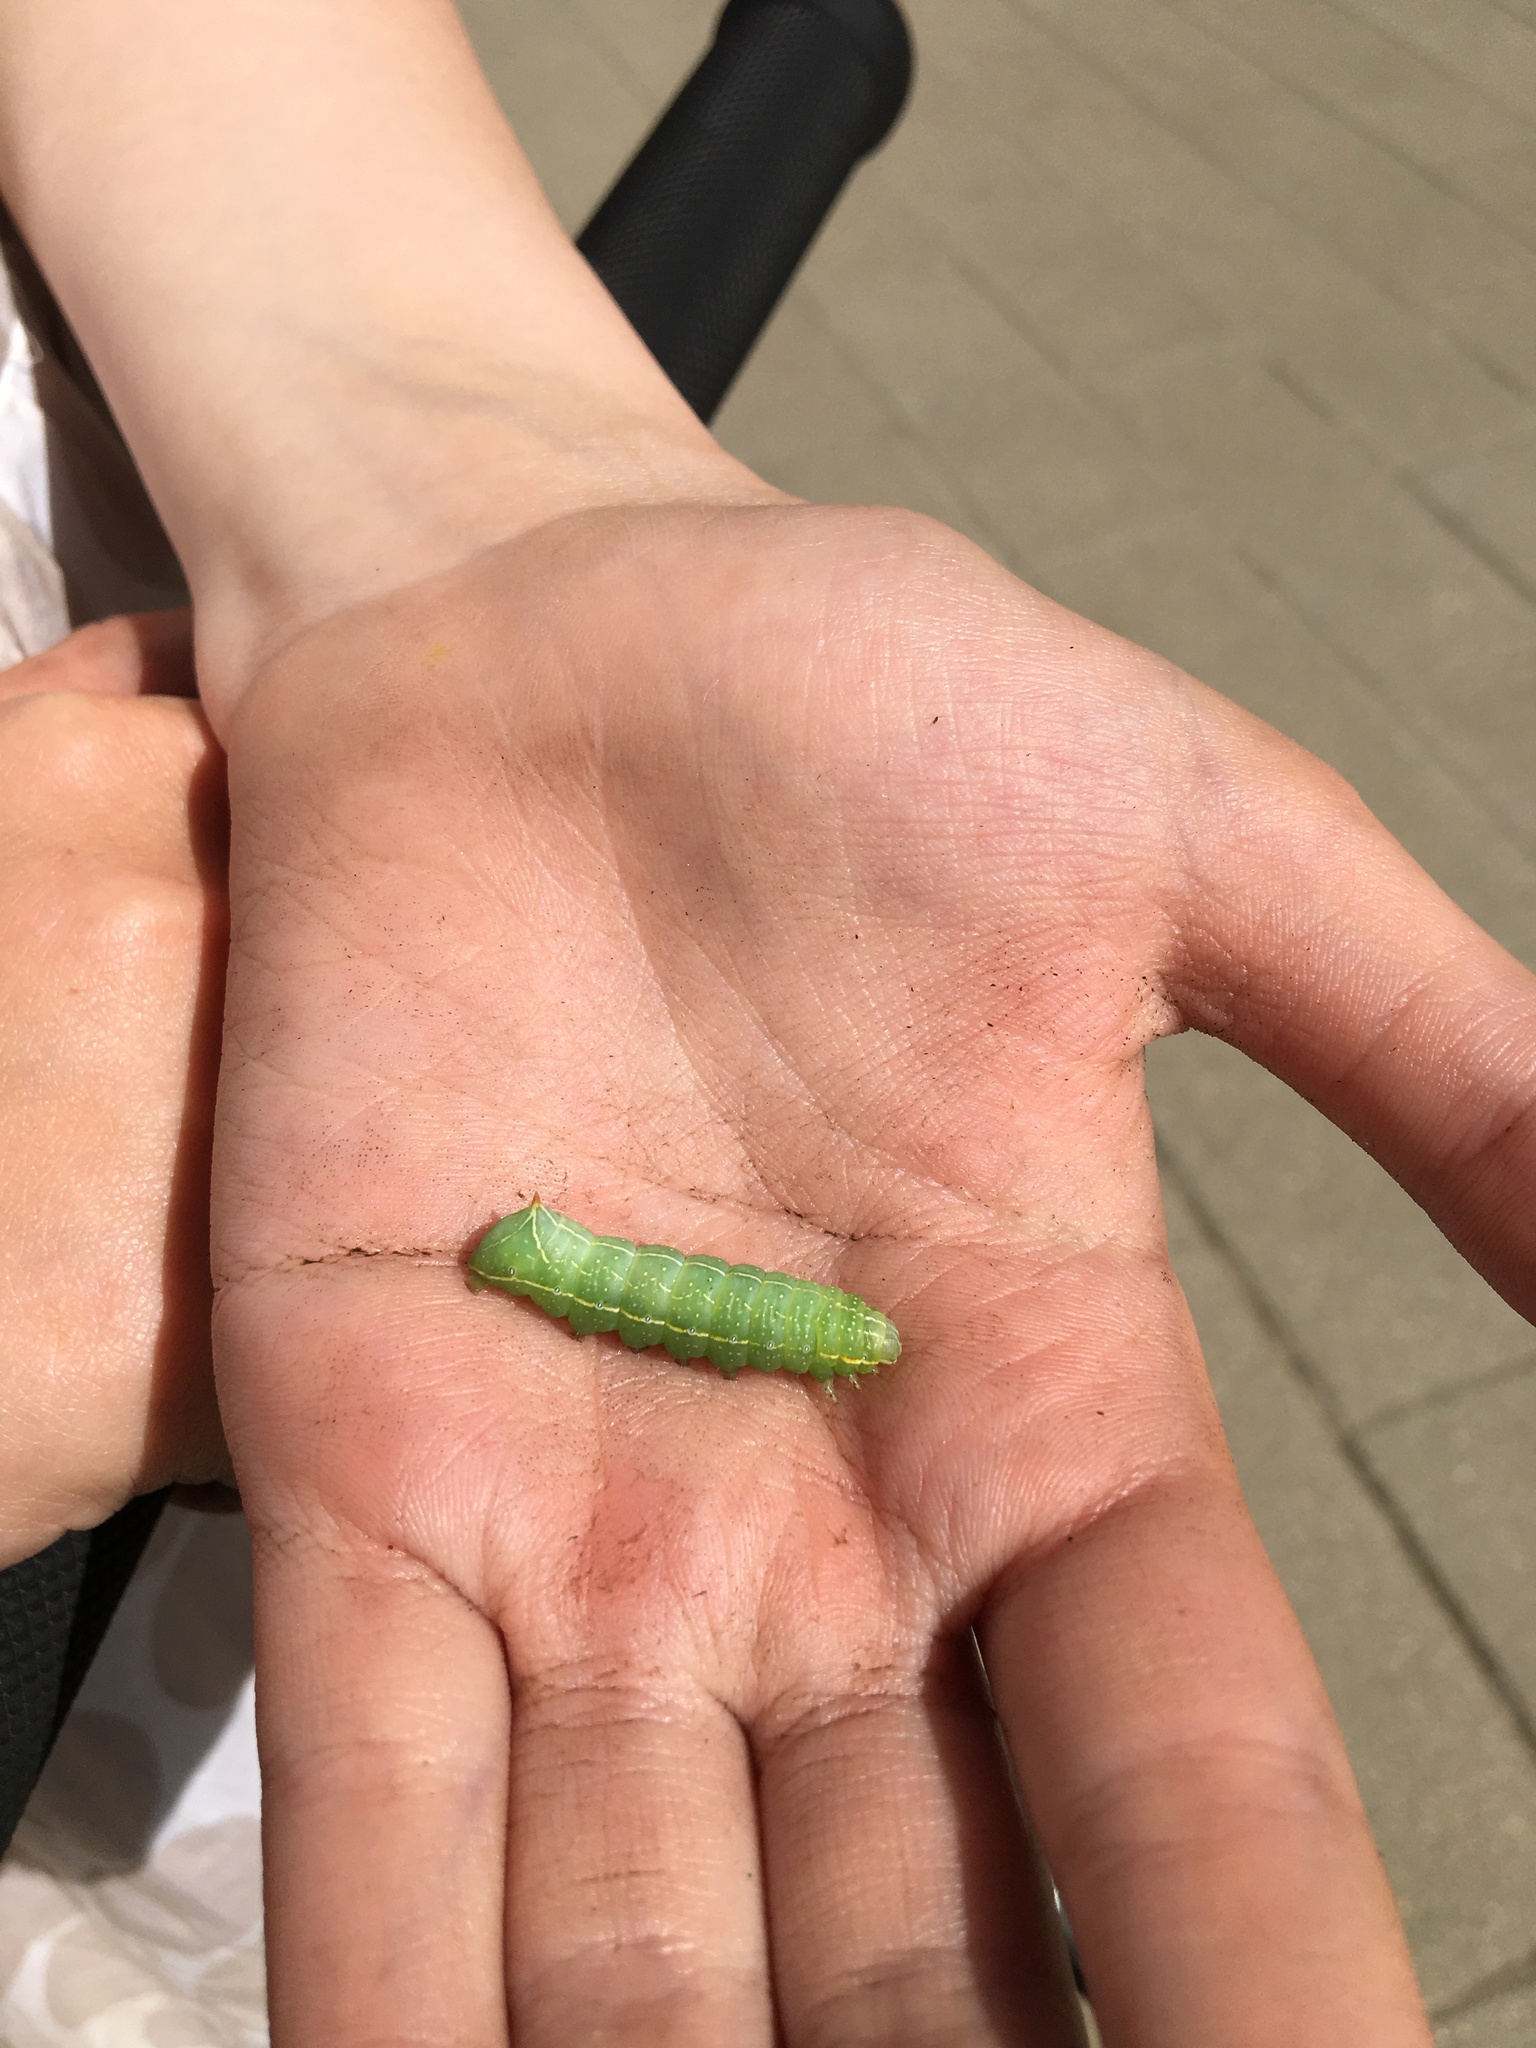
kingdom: Animalia
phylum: Arthropoda
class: Insecta
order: Lepidoptera
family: Noctuidae
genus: Amphipyra
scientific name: Amphipyra berbera
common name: Svensson's copper underwing
